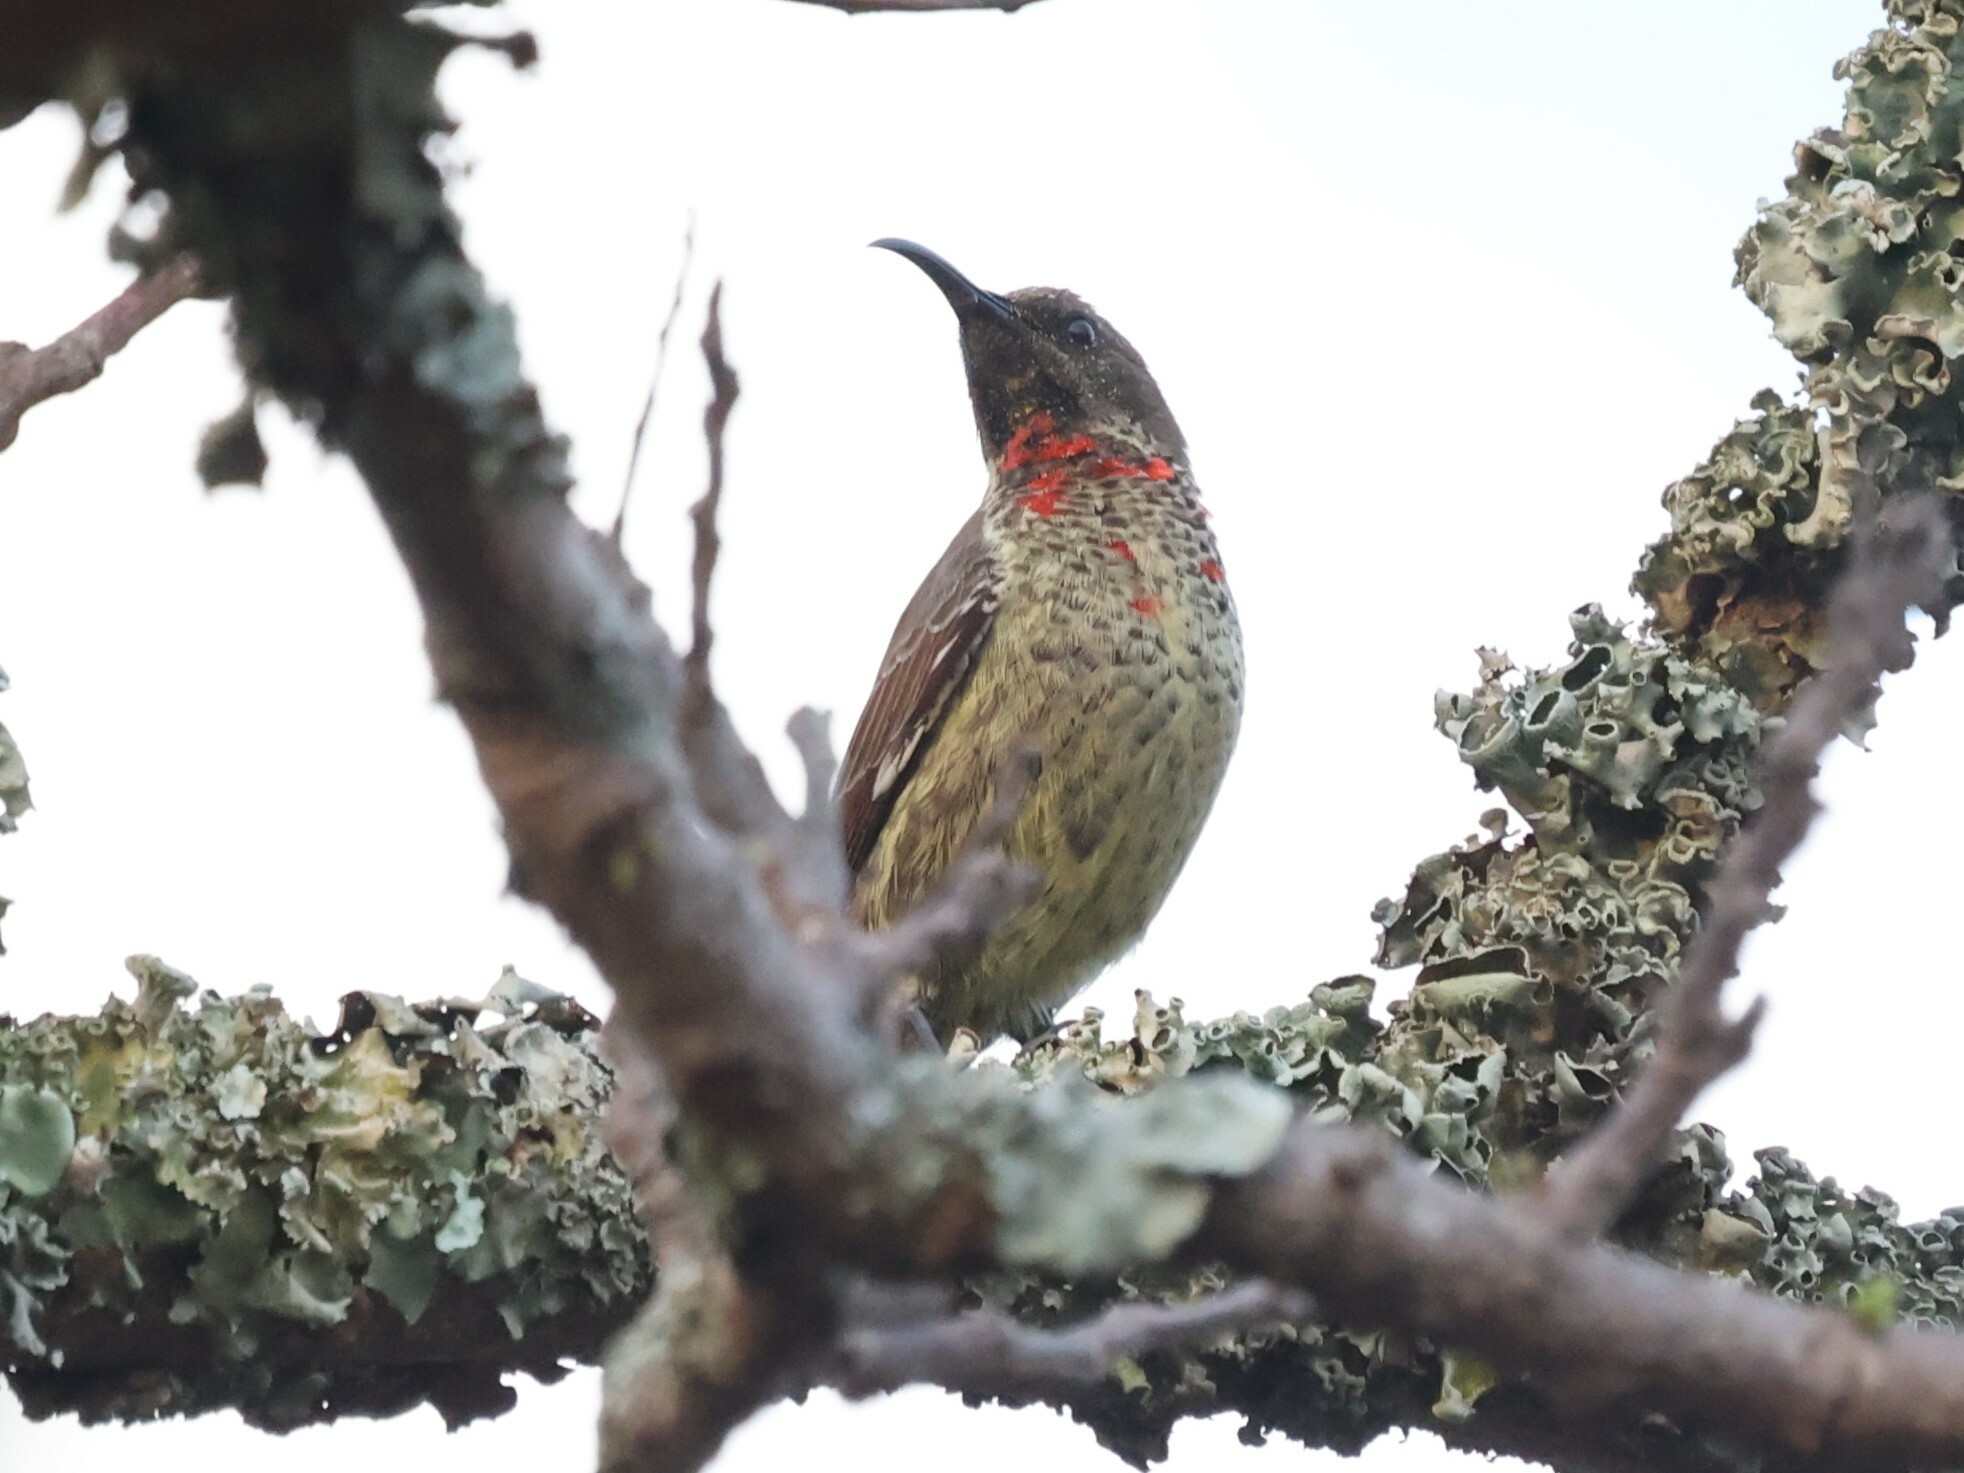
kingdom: Animalia
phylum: Chordata
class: Aves
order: Passeriformes
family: Nectariniidae
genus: Chalcomitra
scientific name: Chalcomitra senegalensis
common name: Scarlet-chested sunbird
